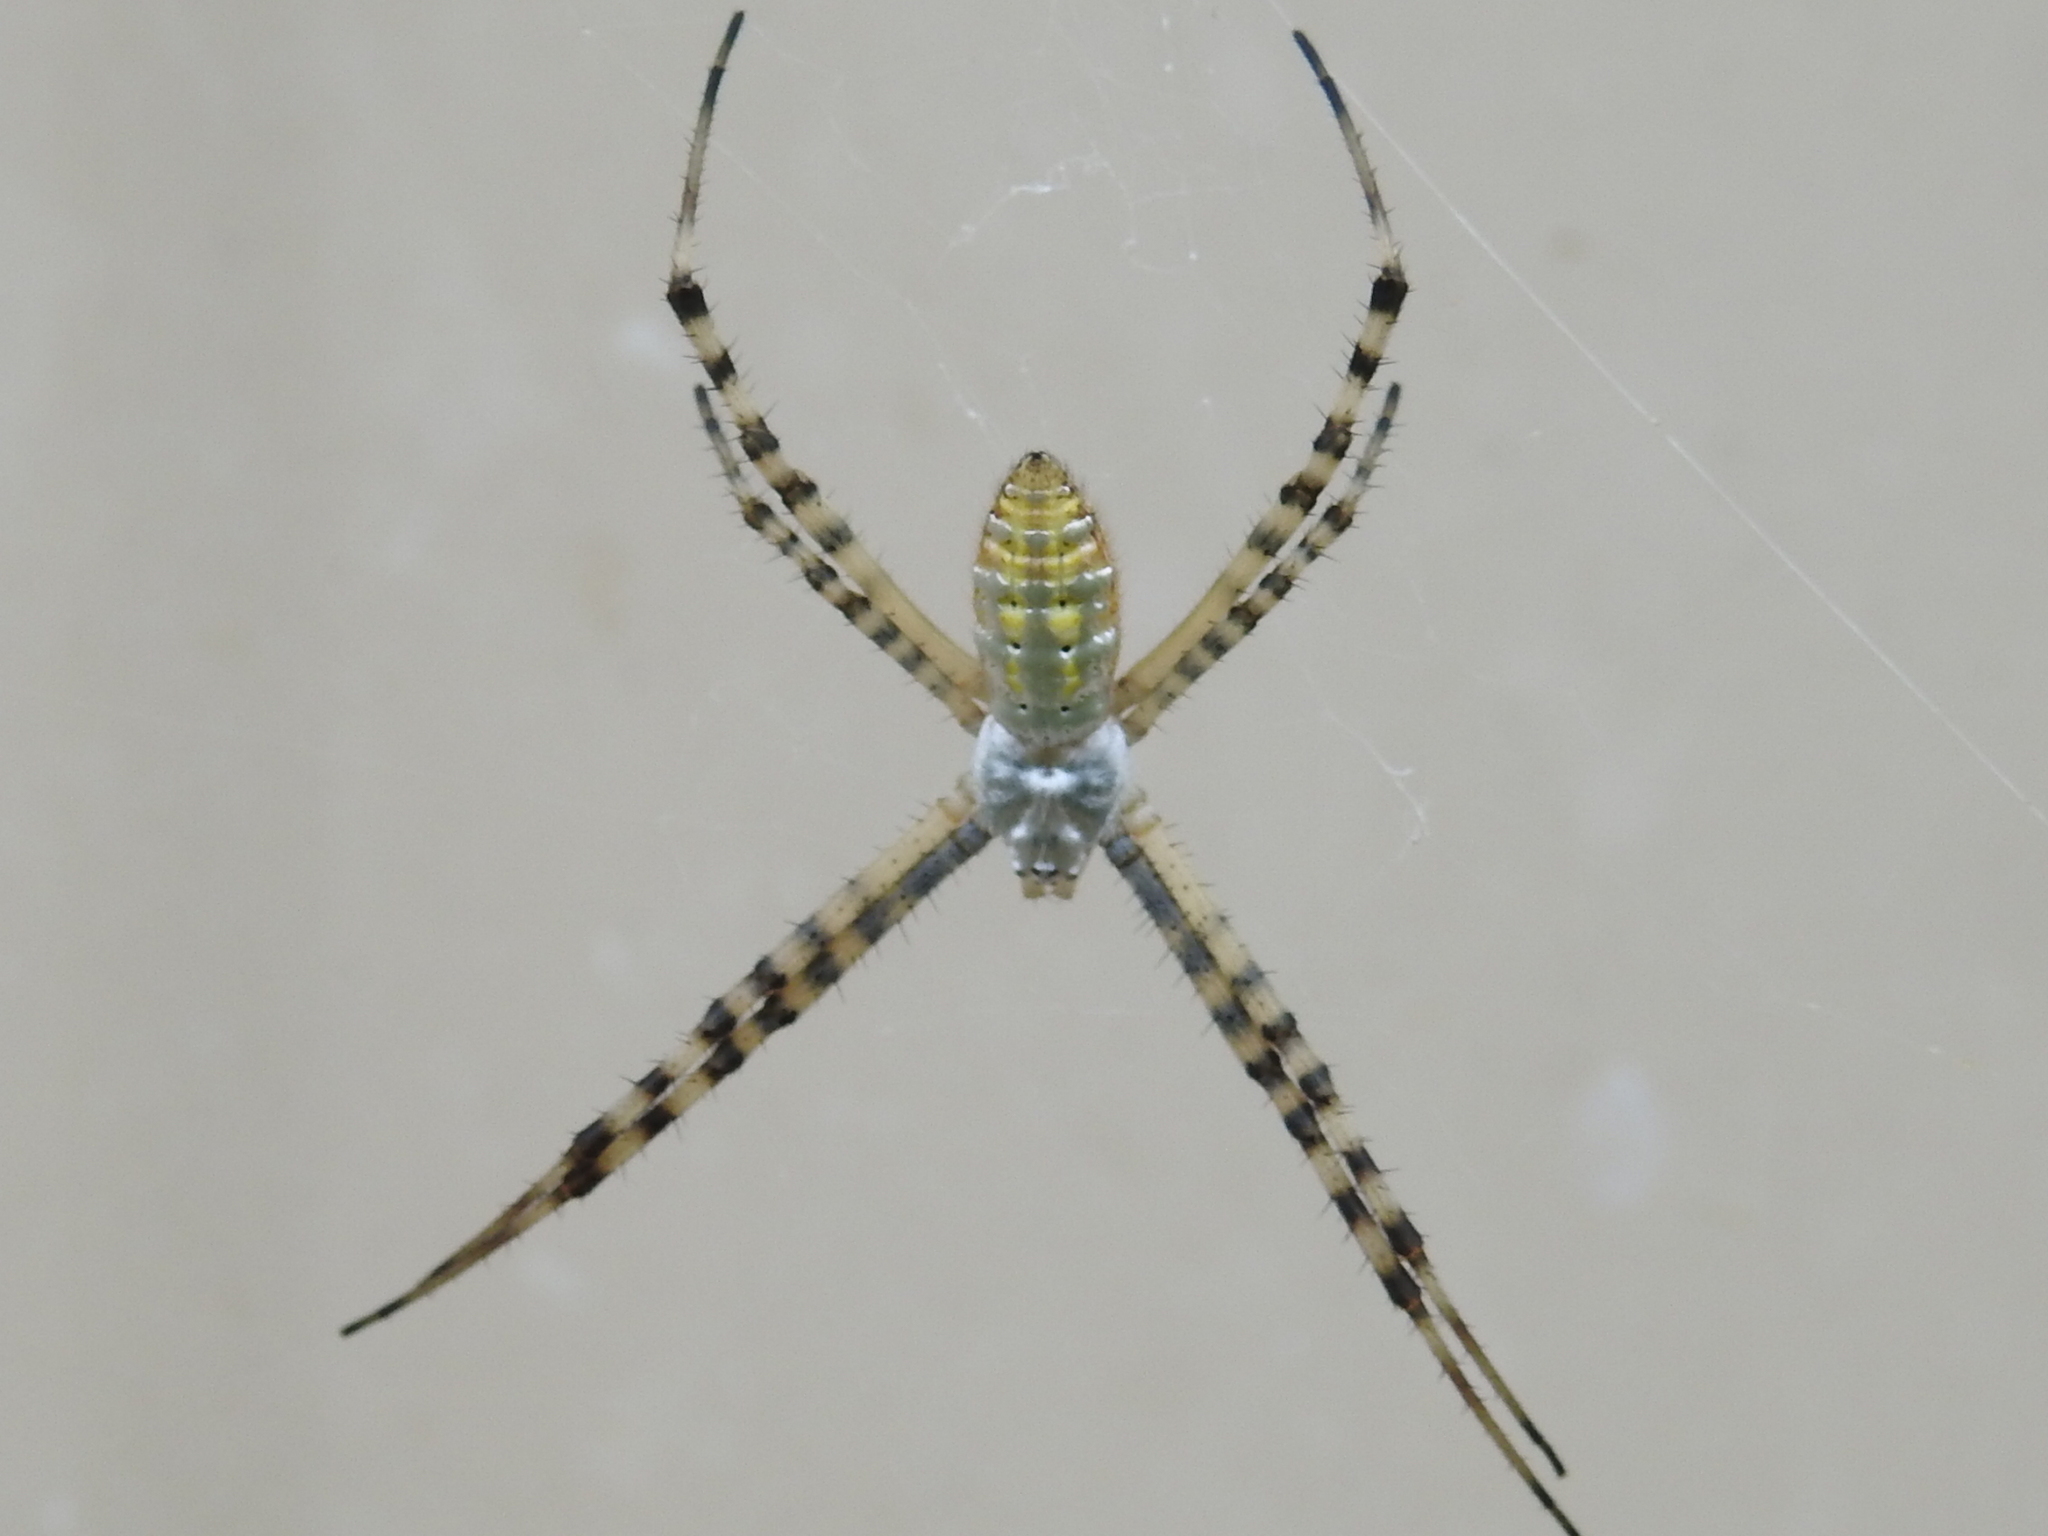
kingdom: Animalia
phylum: Arthropoda
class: Arachnida
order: Araneae
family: Araneidae
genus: Argiope
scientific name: Argiope trifasciata
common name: Banded garden spider
